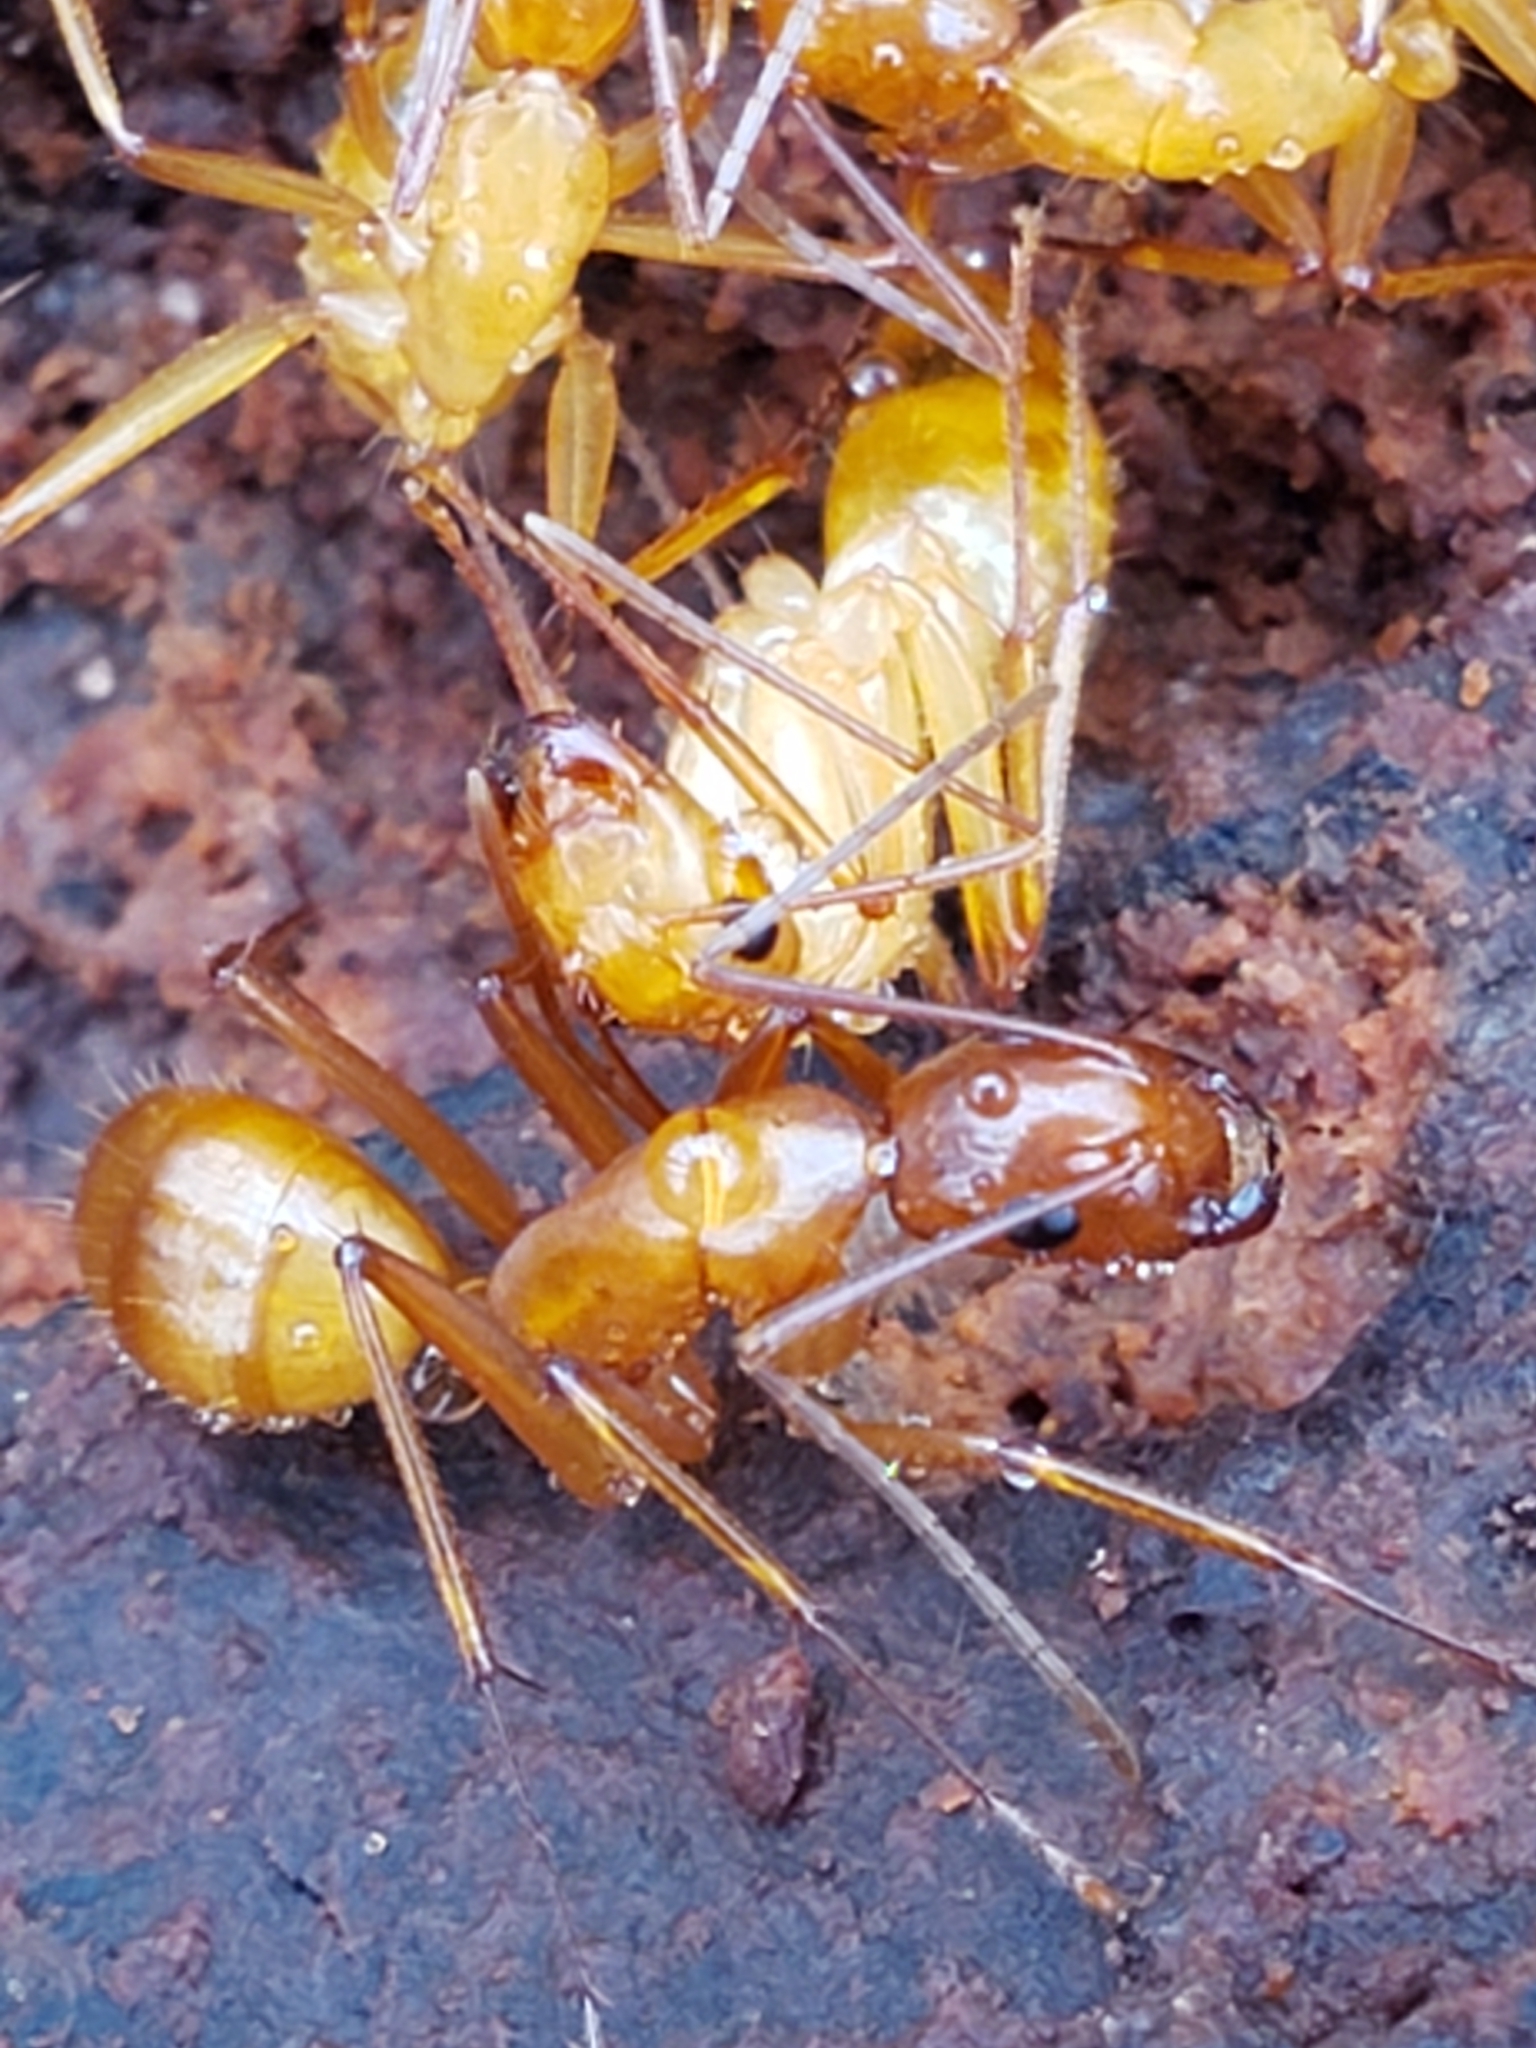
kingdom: Animalia
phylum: Arthropoda
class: Insecta
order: Hymenoptera
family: Formicidae
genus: Camponotus
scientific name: Camponotus castaneus
